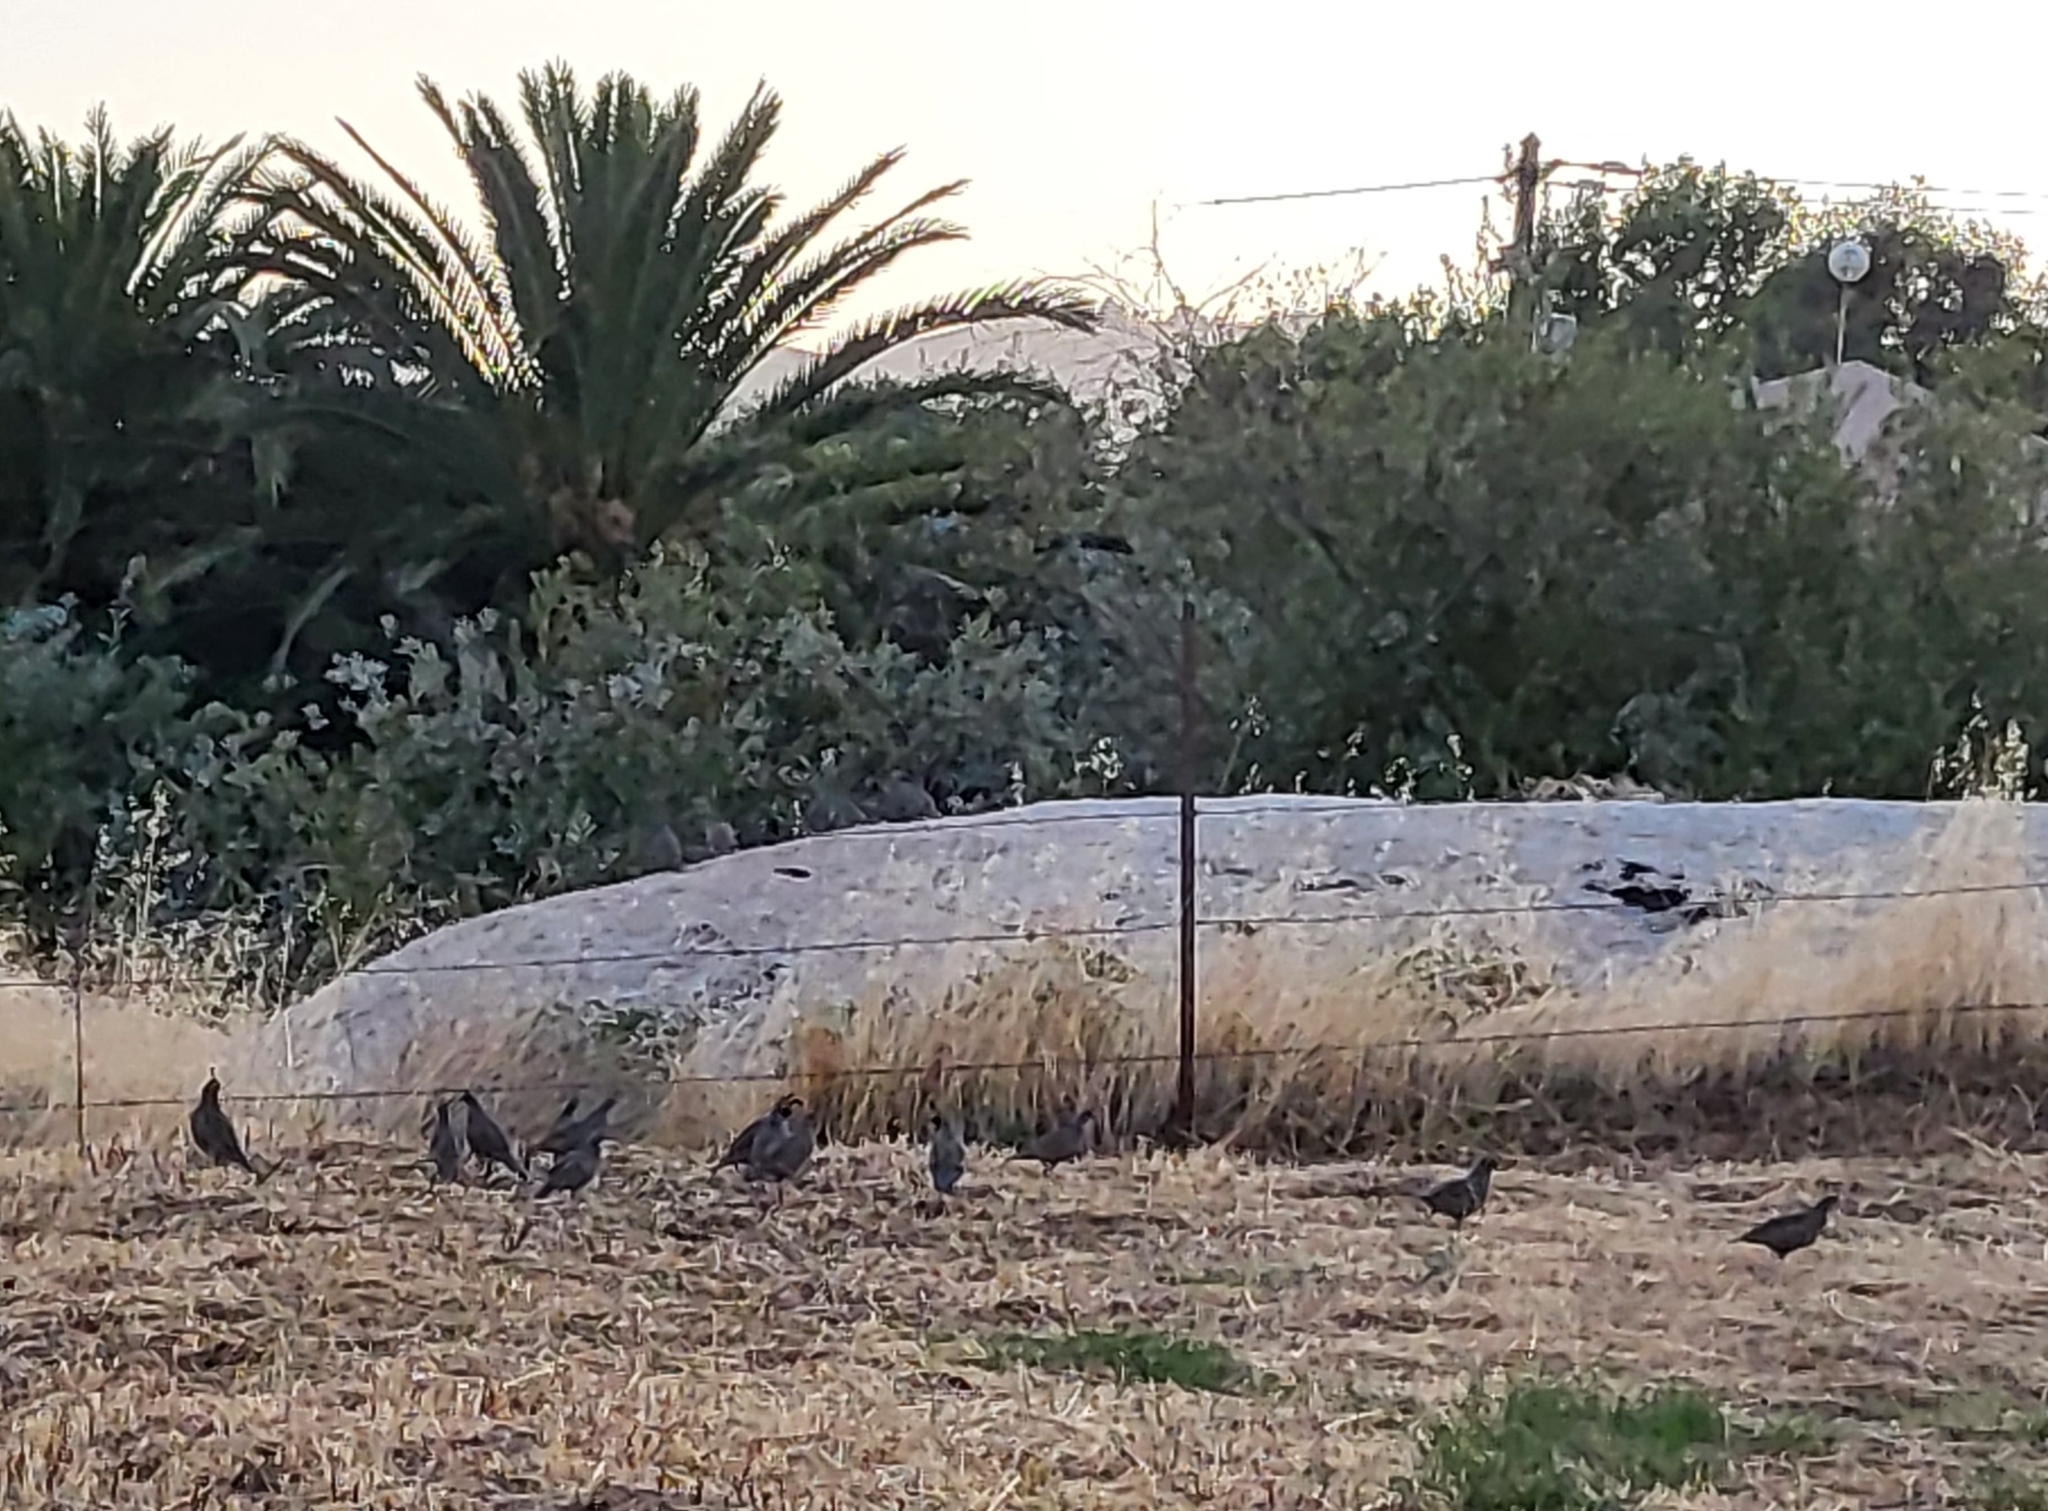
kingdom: Animalia
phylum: Chordata
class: Aves
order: Galliformes
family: Odontophoridae
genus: Callipepla
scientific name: Callipepla californica
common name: California quail
